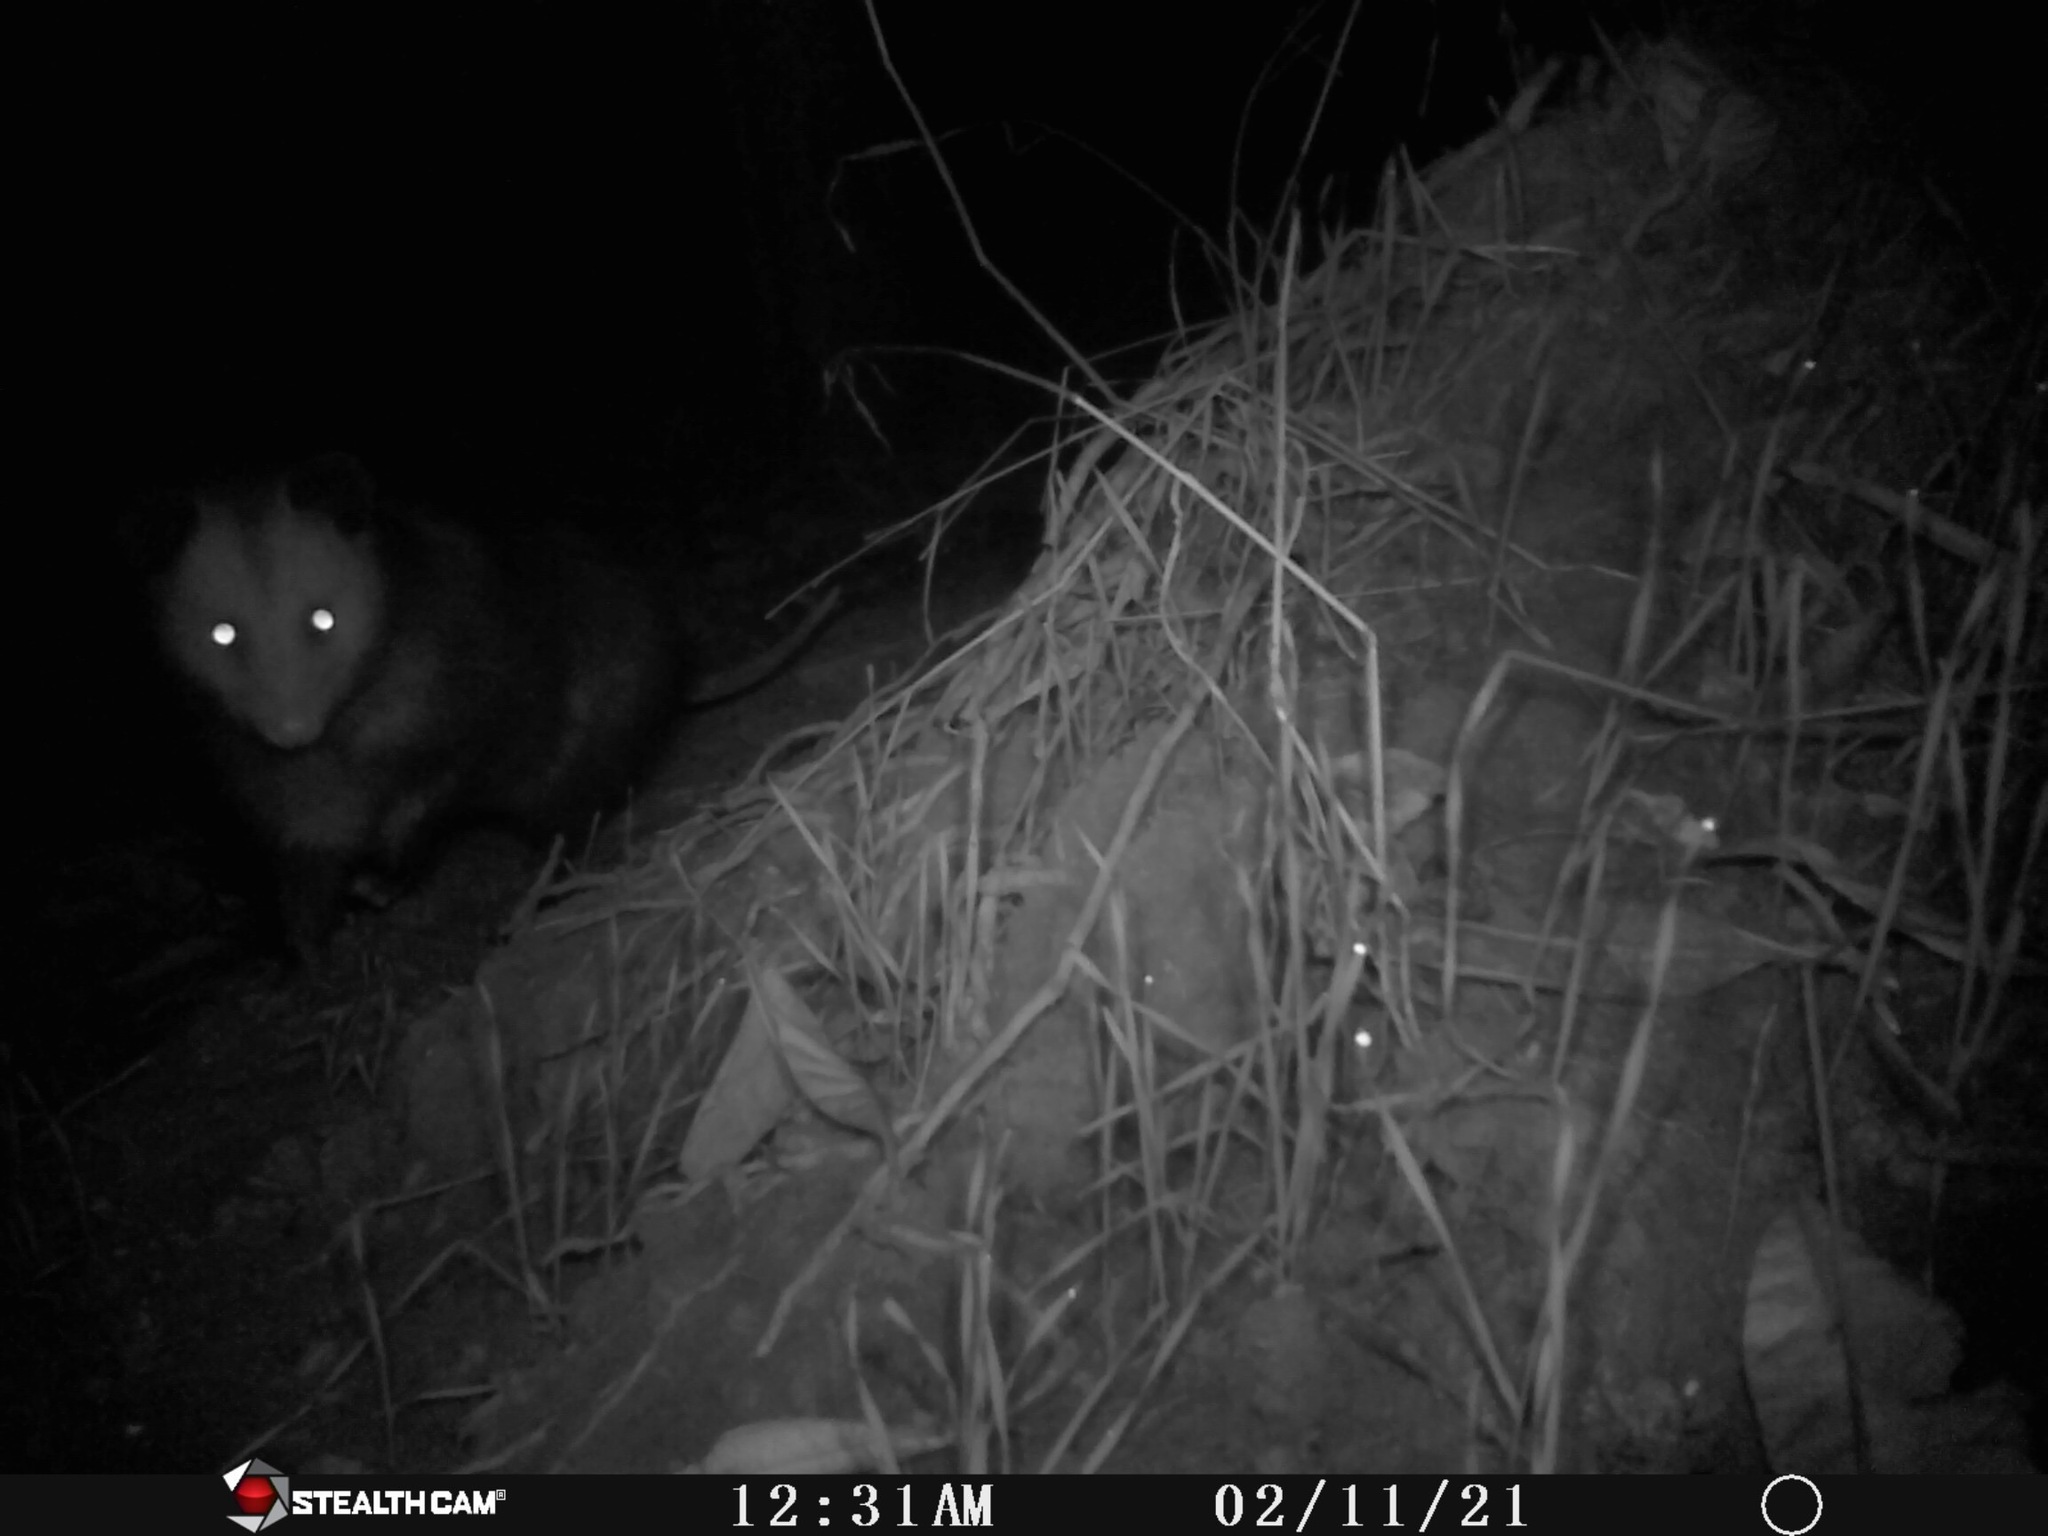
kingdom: Animalia
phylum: Chordata
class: Mammalia
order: Didelphimorphia
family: Didelphidae
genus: Didelphis
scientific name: Didelphis virginiana
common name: Virginia opossum
